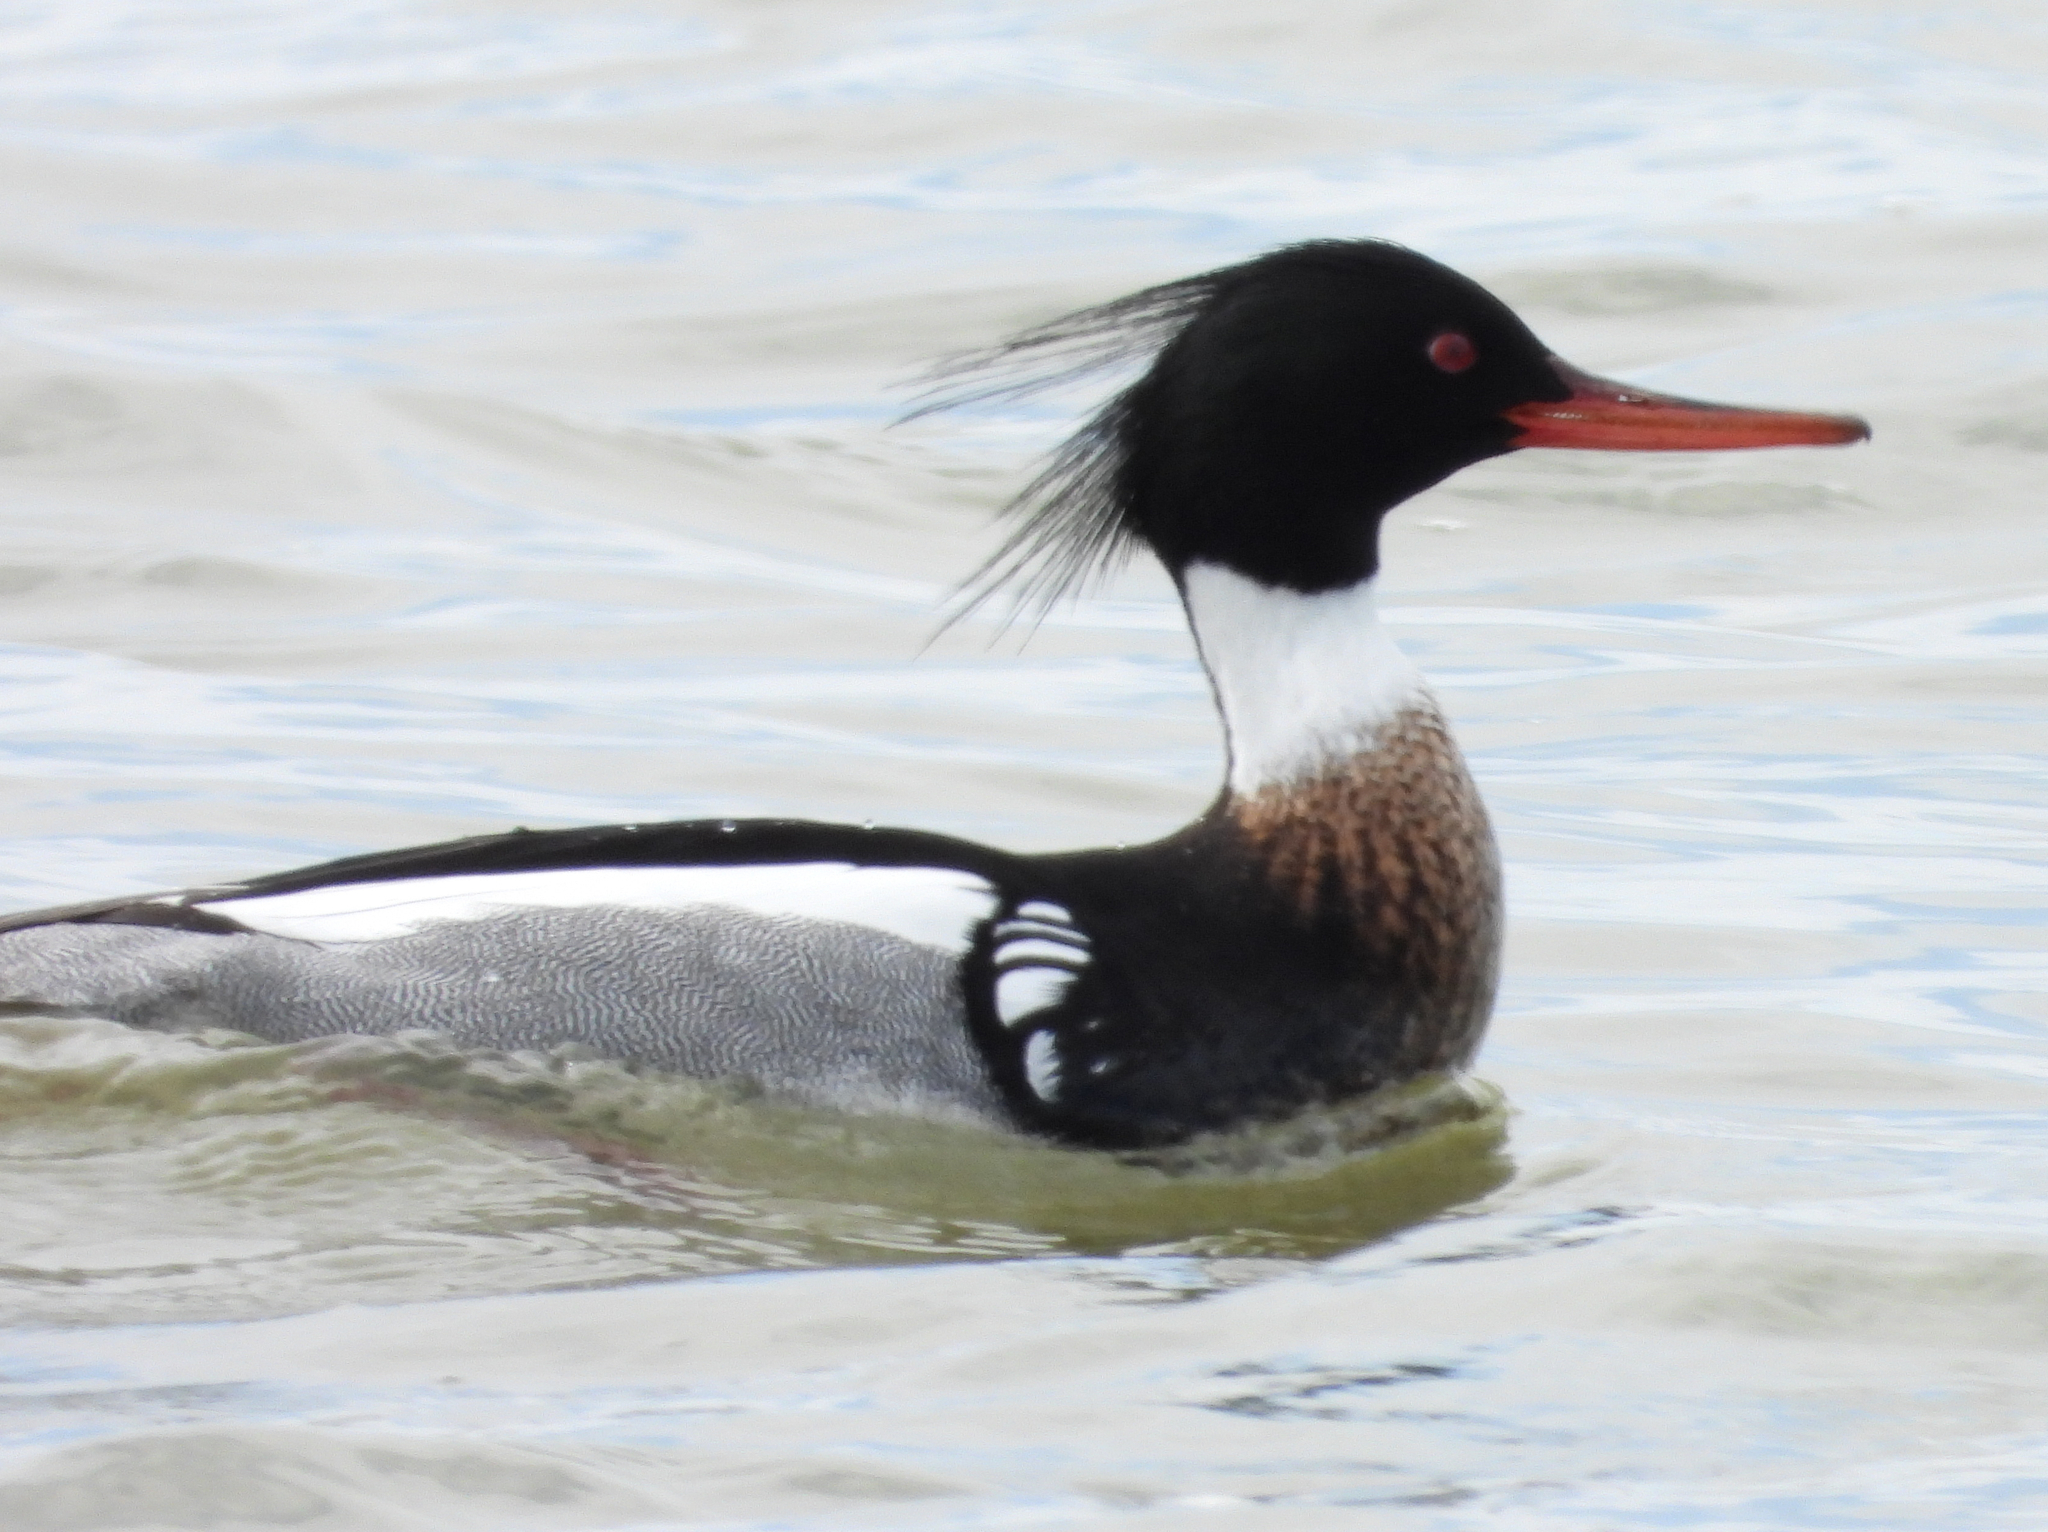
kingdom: Animalia
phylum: Chordata
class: Aves
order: Anseriformes
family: Anatidae
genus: Mergus
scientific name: Mergus serrator
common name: Red-breasted merganser
